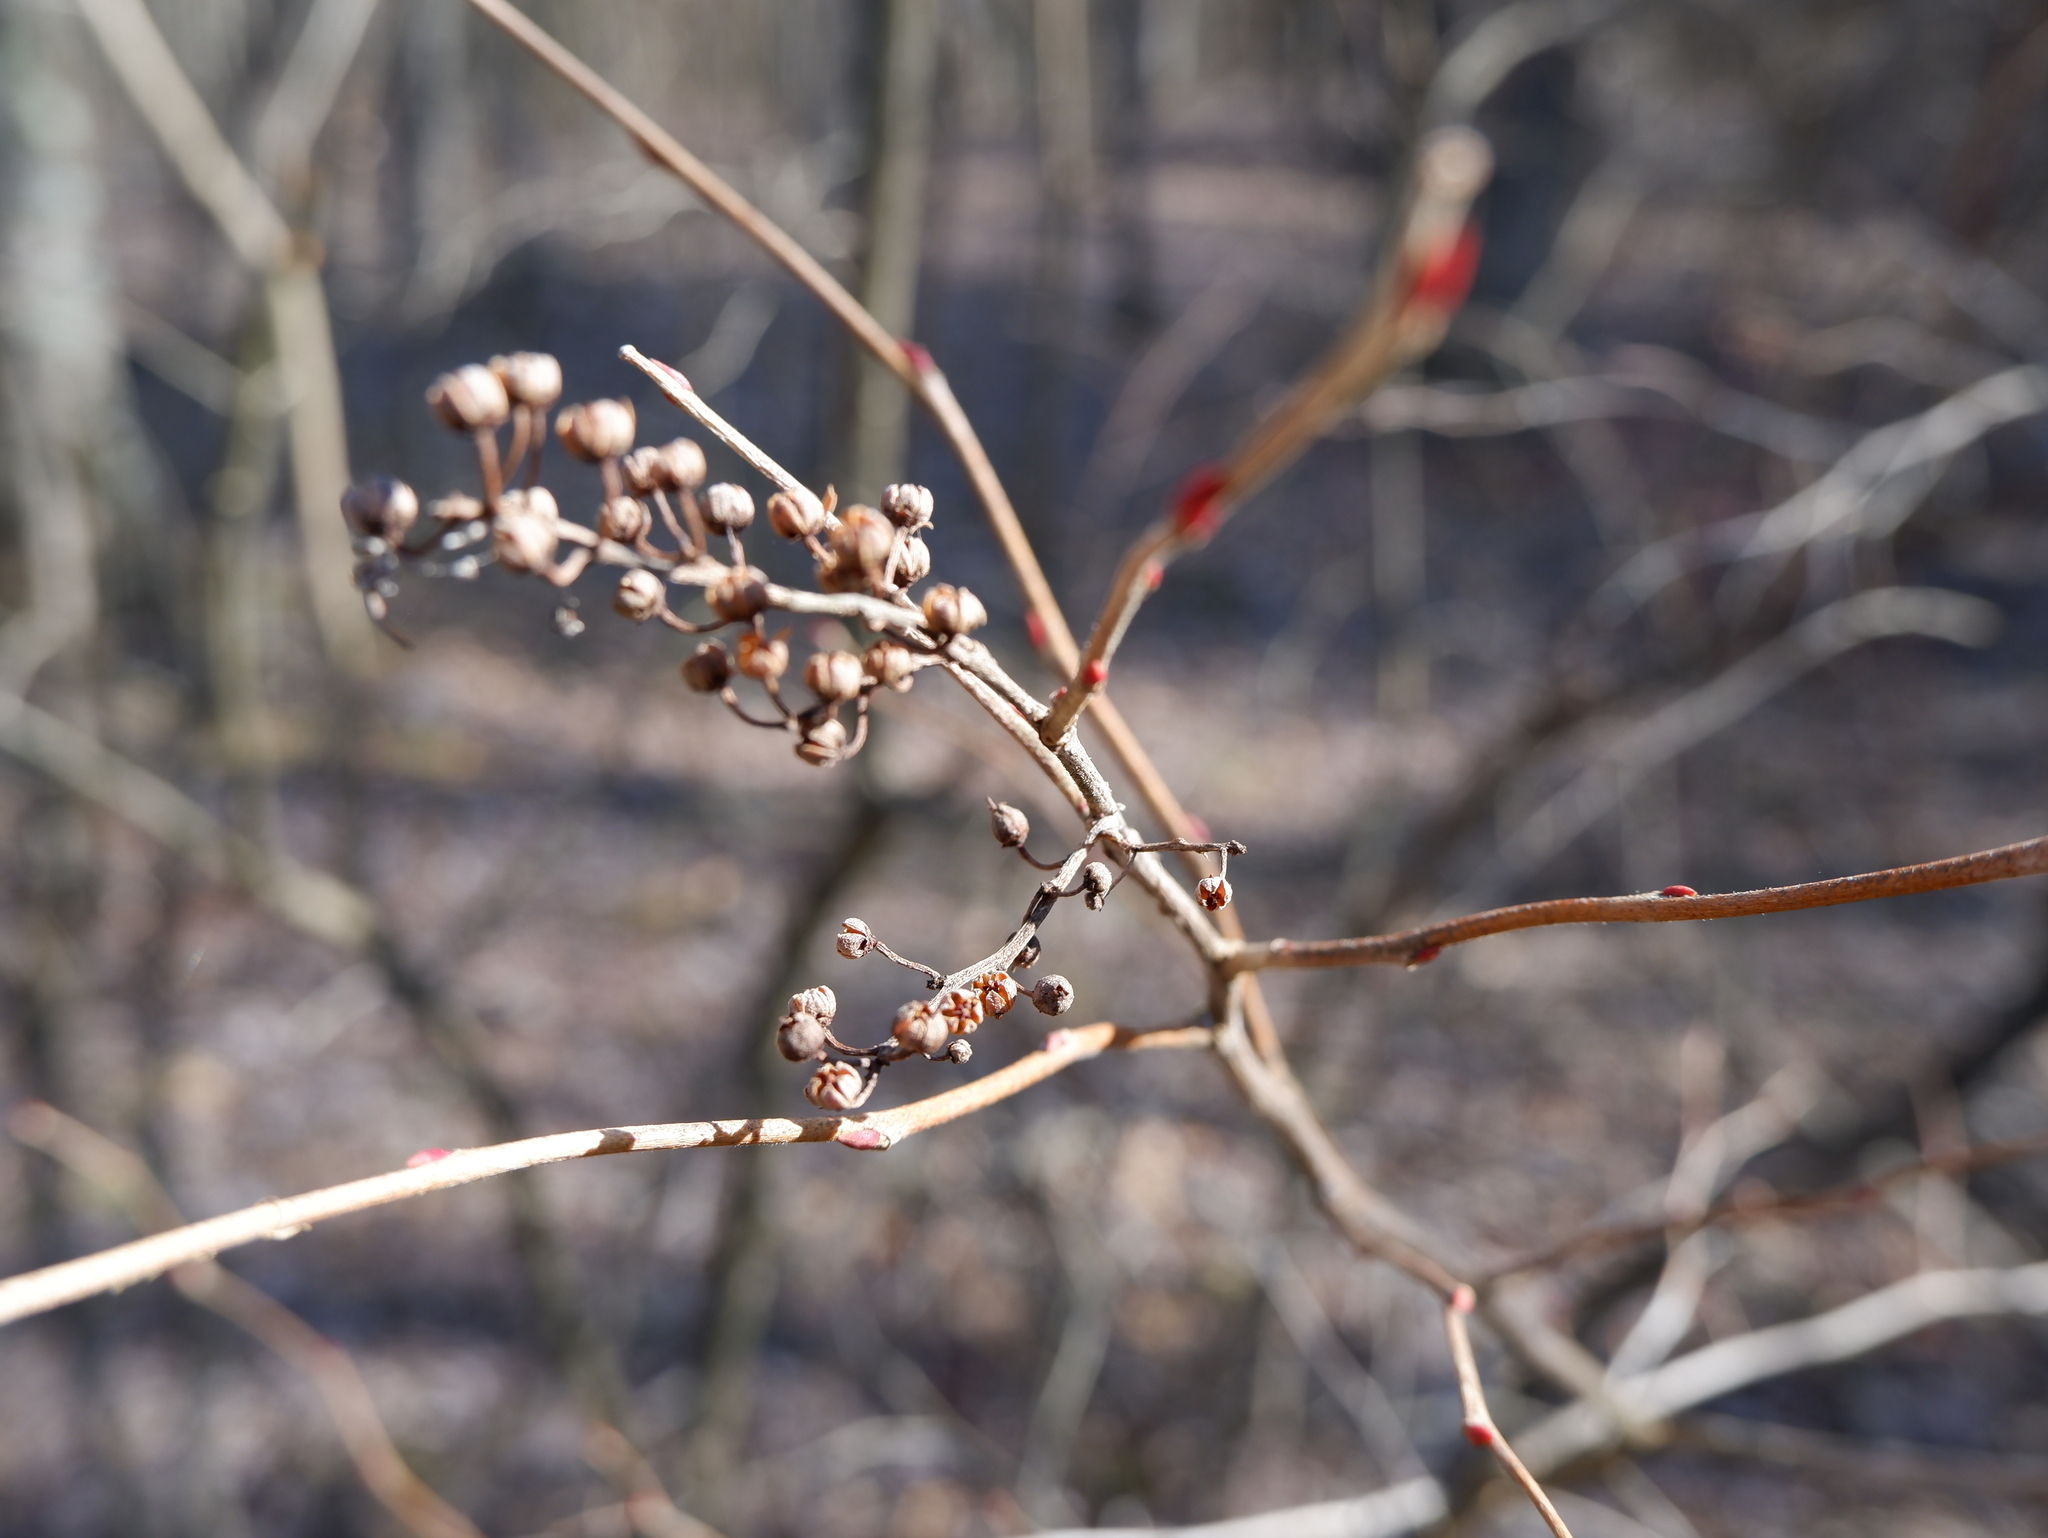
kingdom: Plantae
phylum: Tracheophyta
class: Magnoliopsida
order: Ericales
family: Ericaceae
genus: Lyonia
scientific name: Lyonia ligustrina
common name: Maleberry
